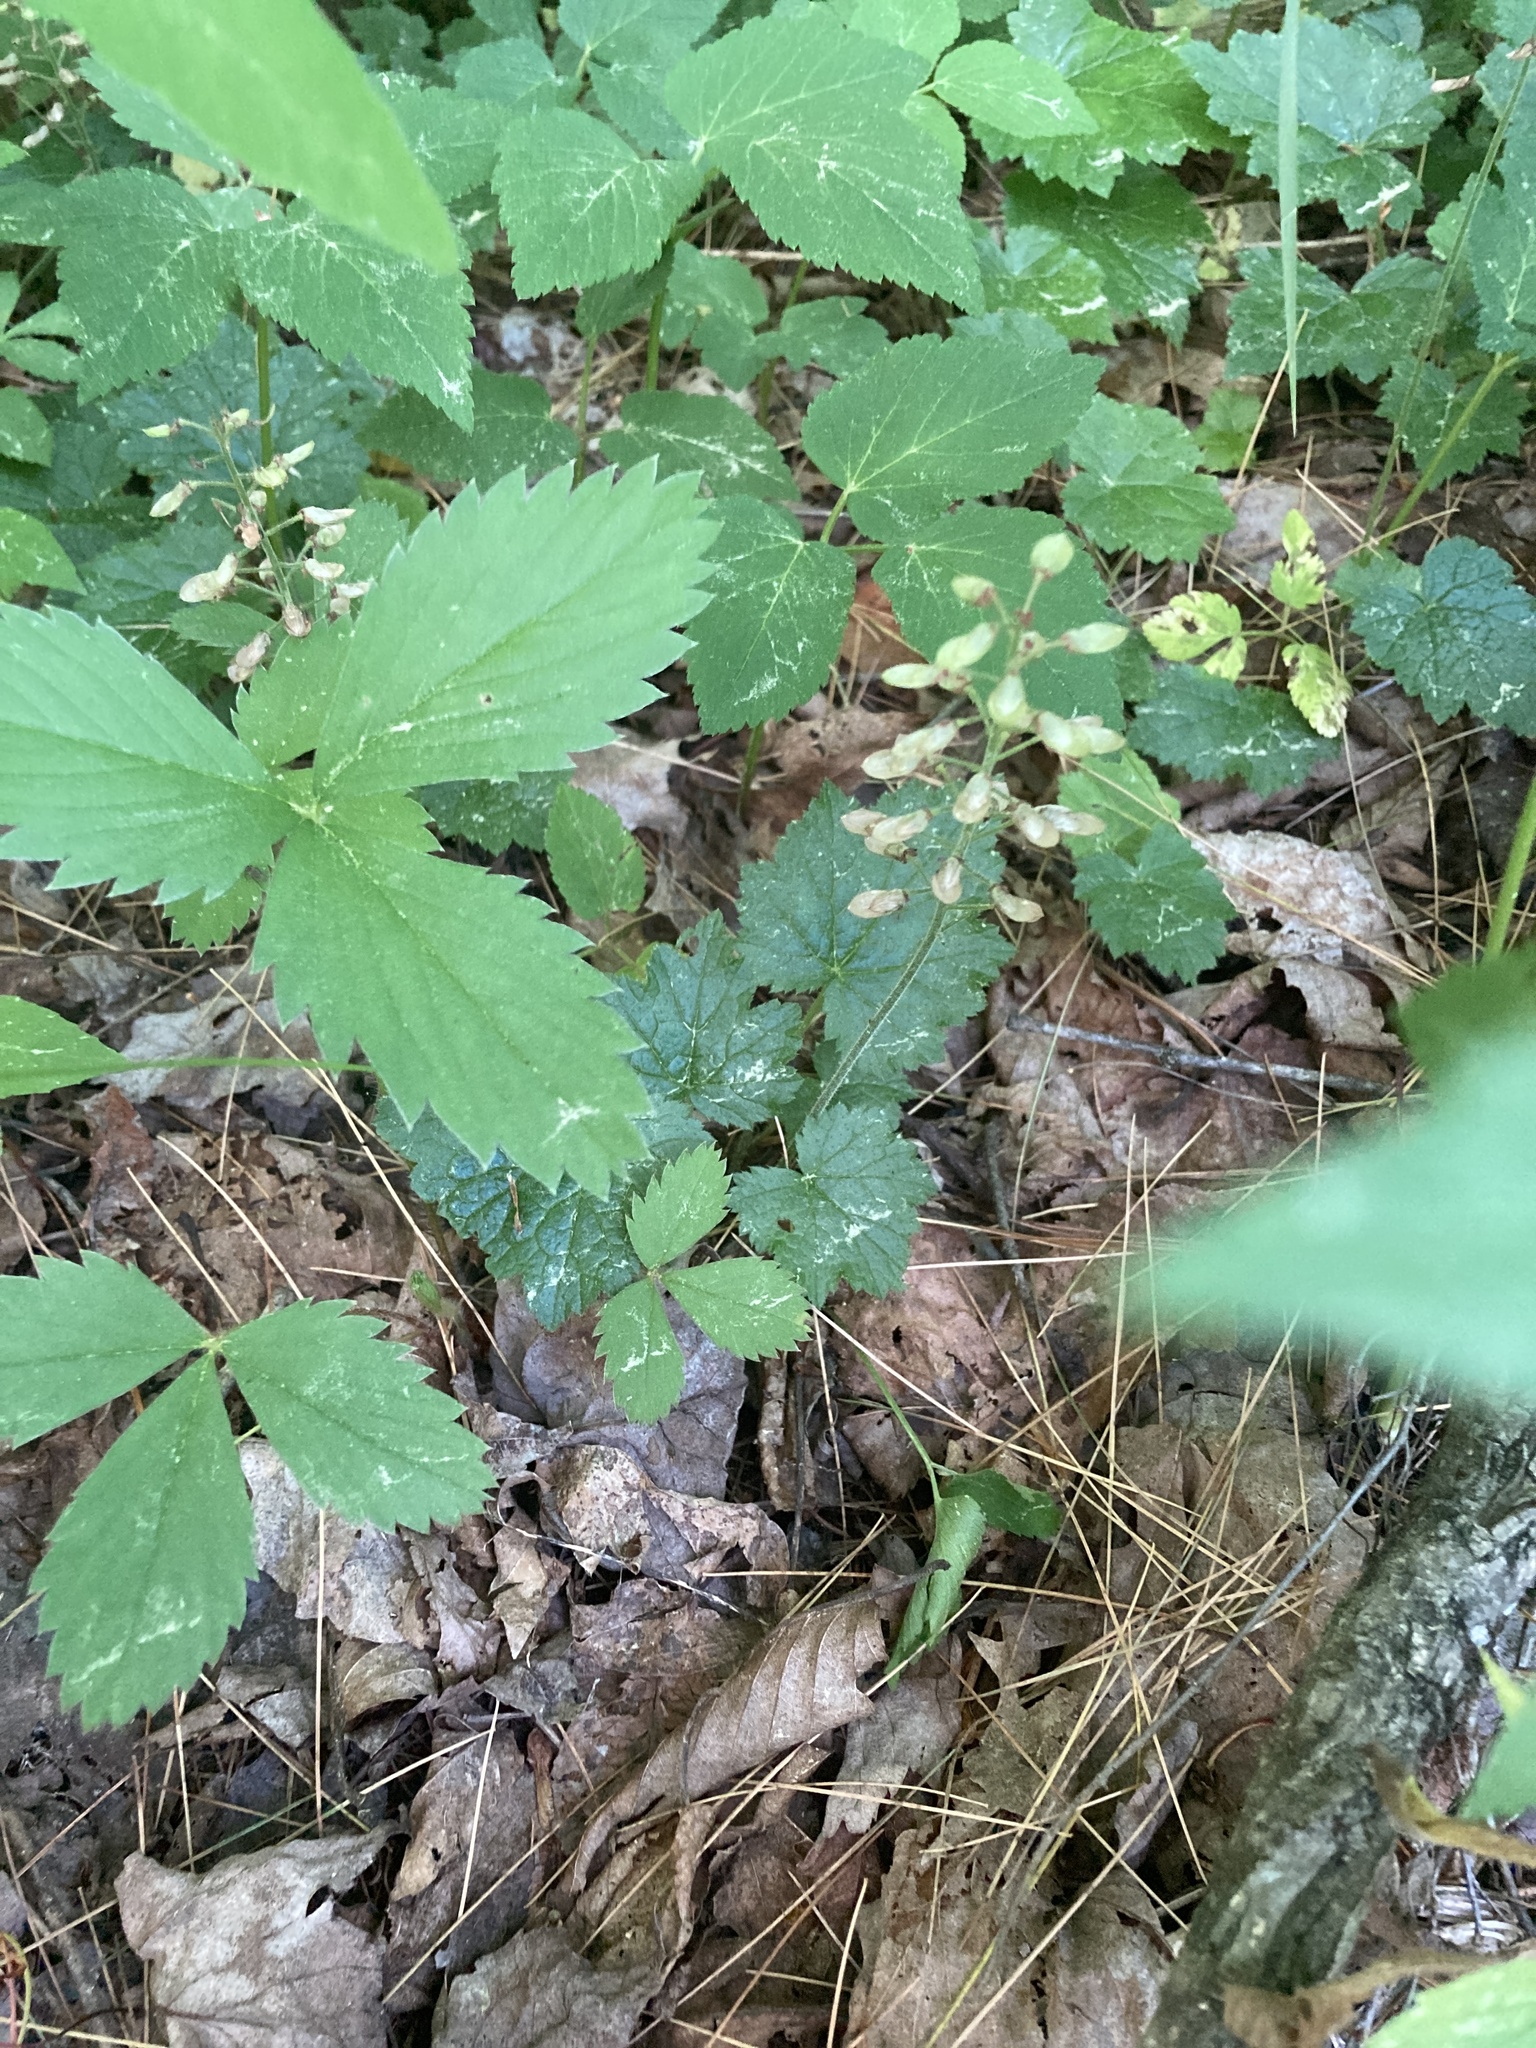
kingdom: Plantae
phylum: Tracheophyta
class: Magnoliopsida
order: Saxifragales
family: Saxifragaceae
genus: Tiarella
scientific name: Tiarella stolonifera
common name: Stoloniferous foamflower
